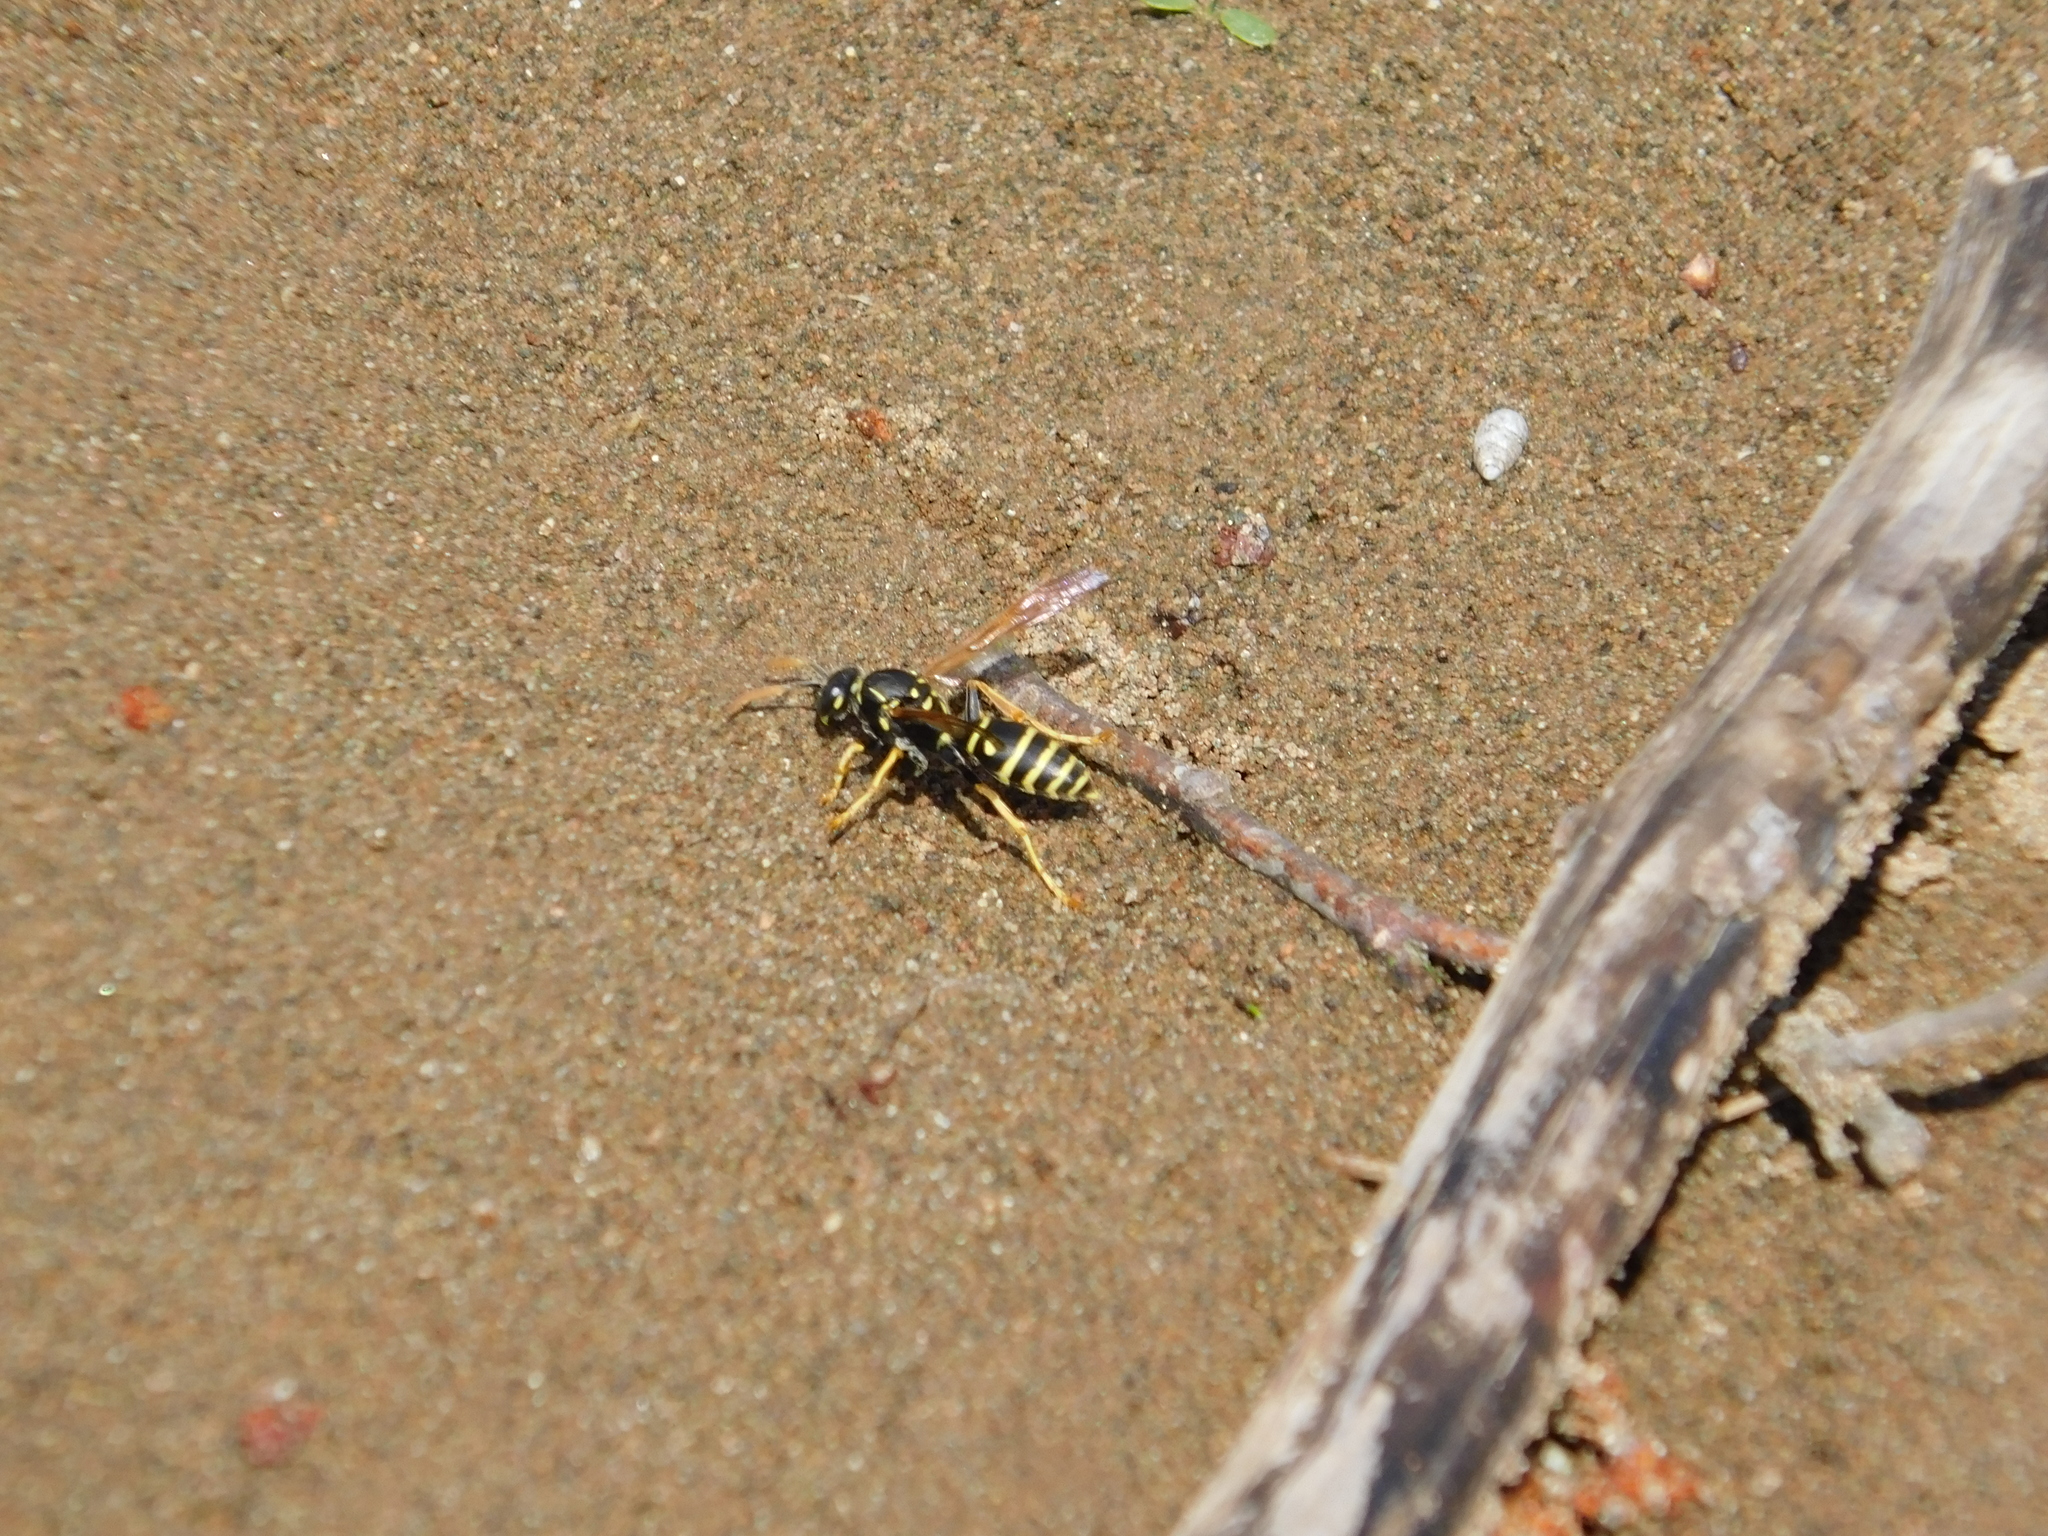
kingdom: Animalia
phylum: Arthropoda
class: Insecta
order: Hymenoptera
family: Eumenidae
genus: Polistes
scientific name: Polistes nimpha
